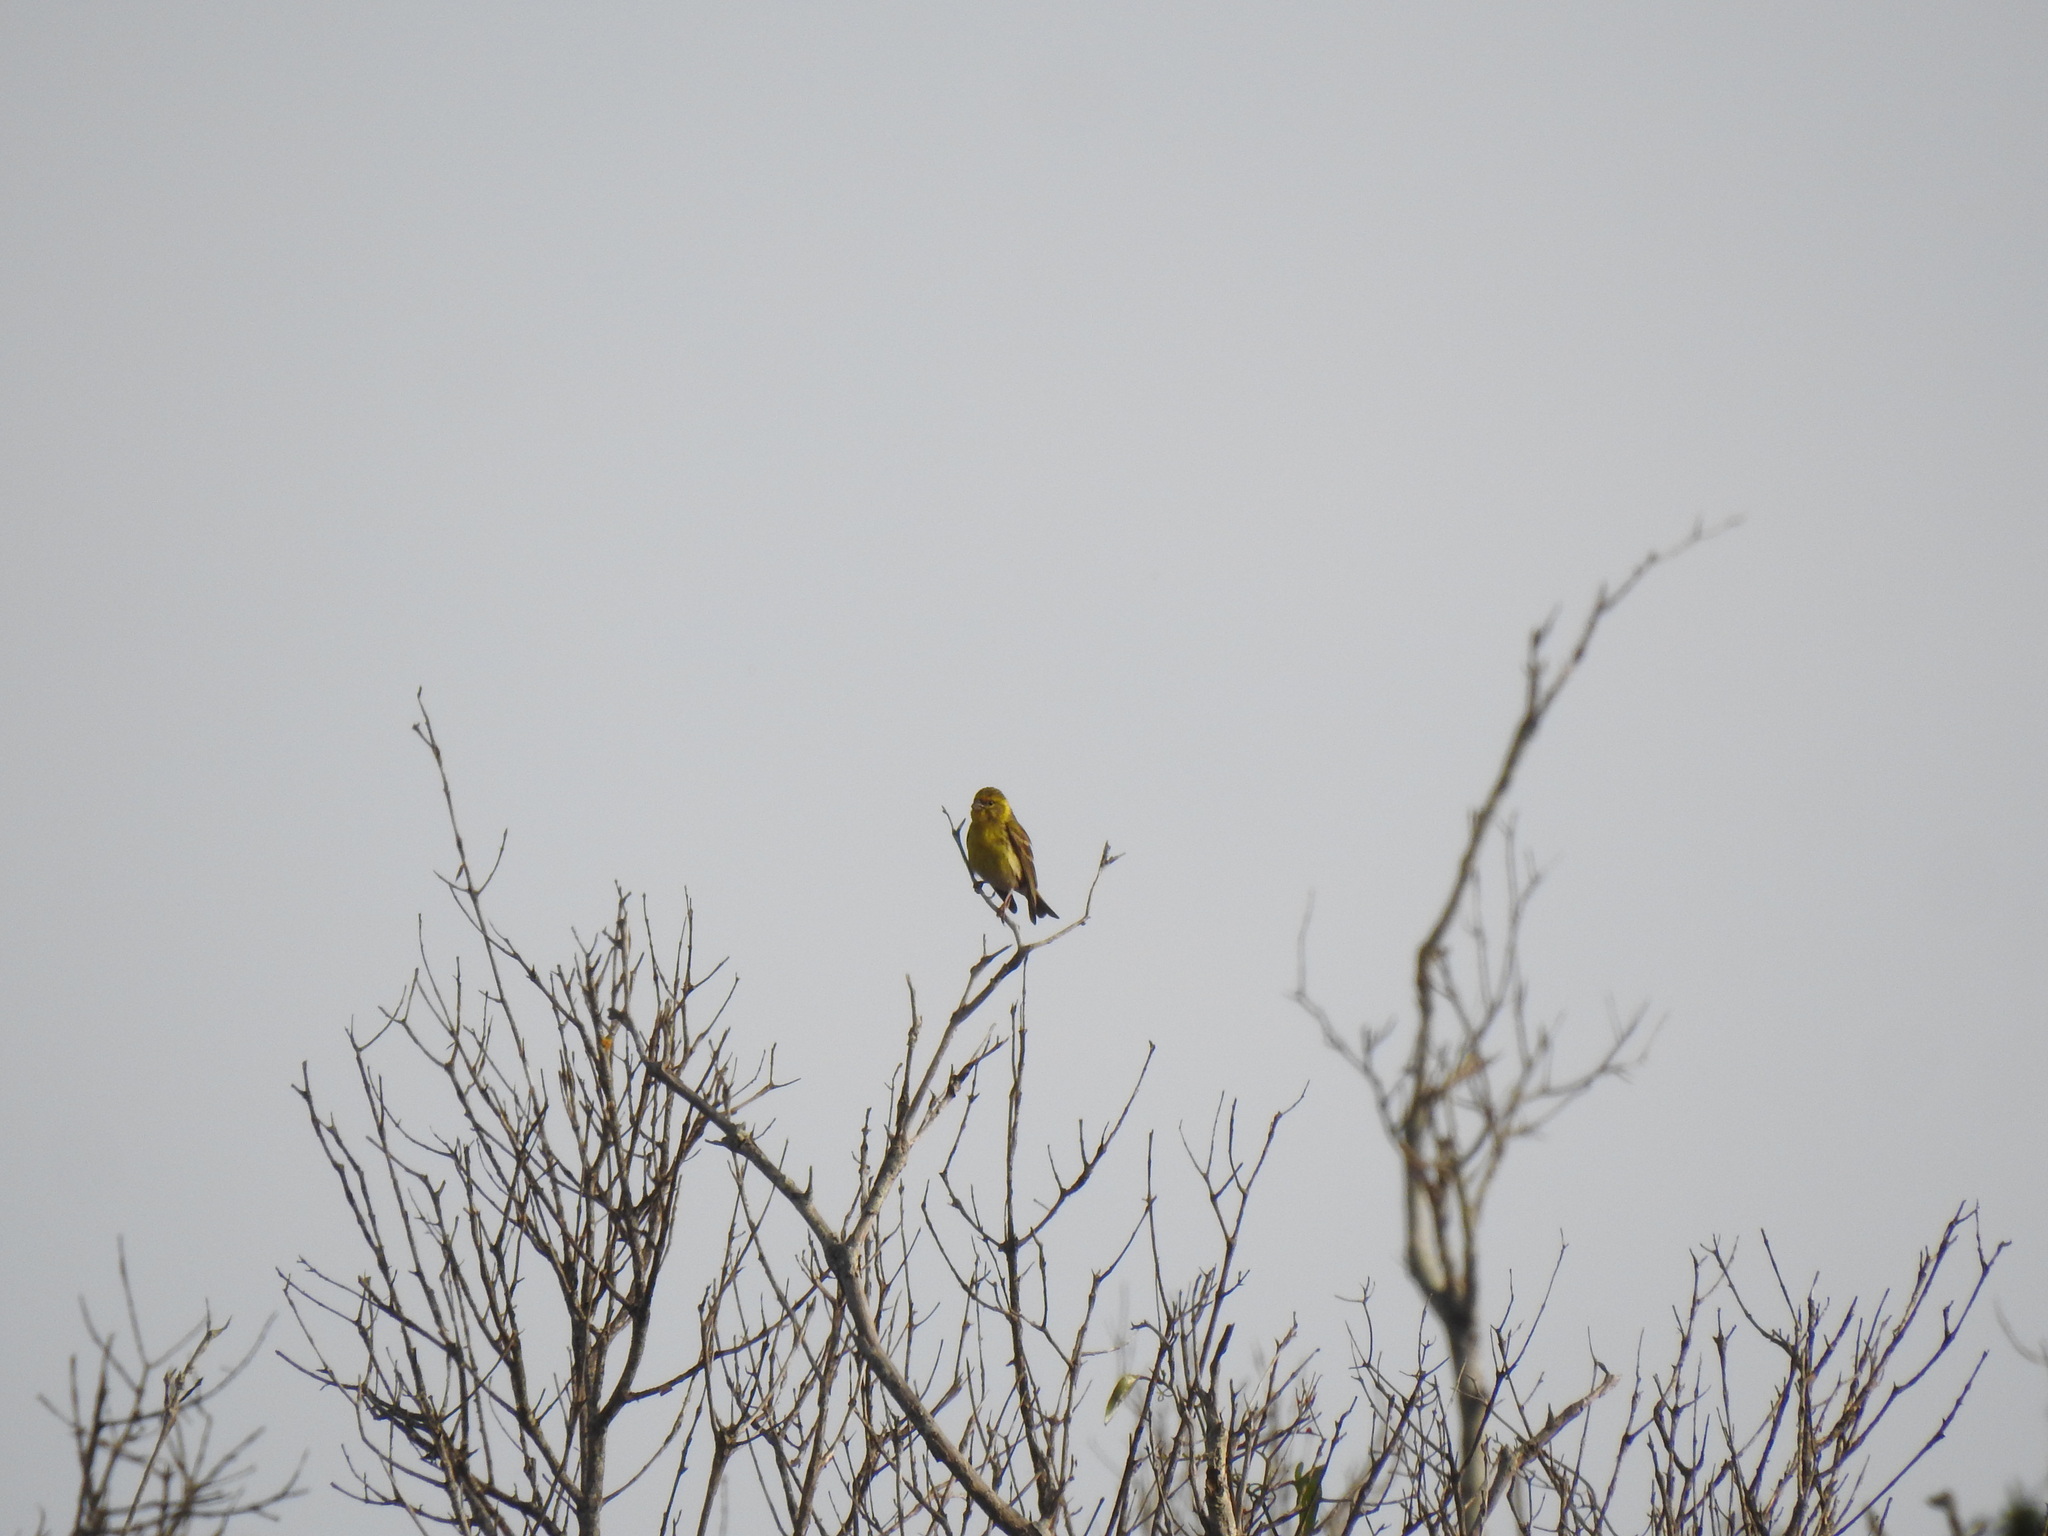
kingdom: Animalia
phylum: Chordata
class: Aves
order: Passeriformes
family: Fringillidae
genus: Serinus
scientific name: Serinus serinus
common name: European serin
